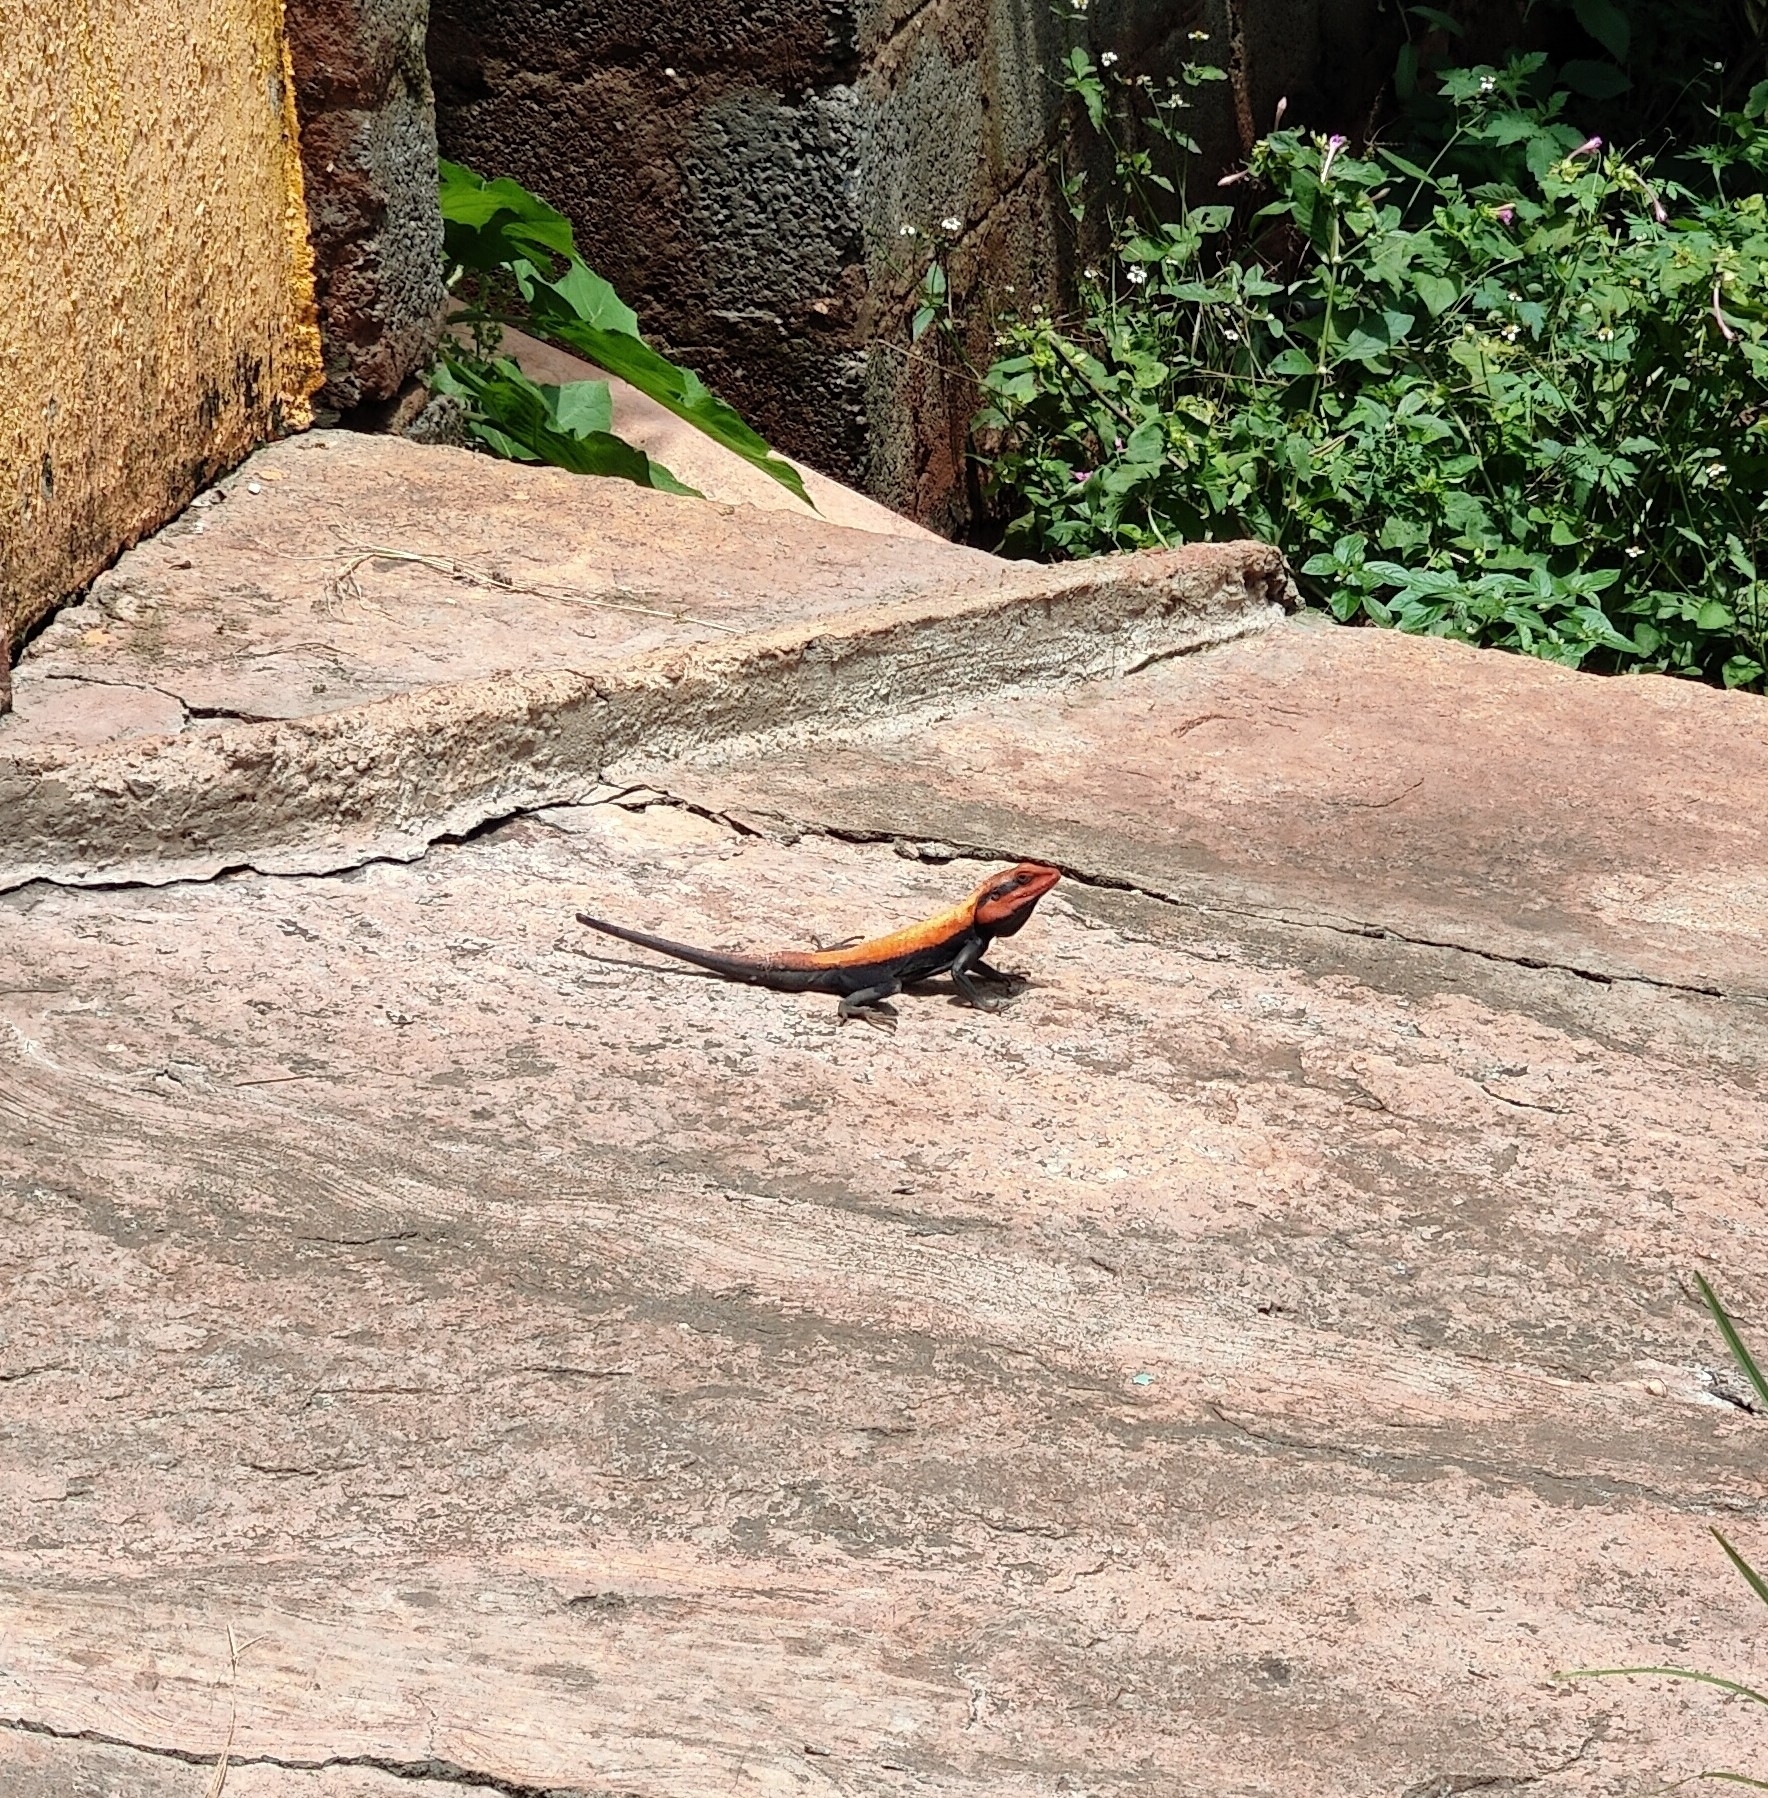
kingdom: Animalia
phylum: Chordata
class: Squamata
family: Agamidae
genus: Psammophilus
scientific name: Psammophilus dorsalis
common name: South indian rock agama
